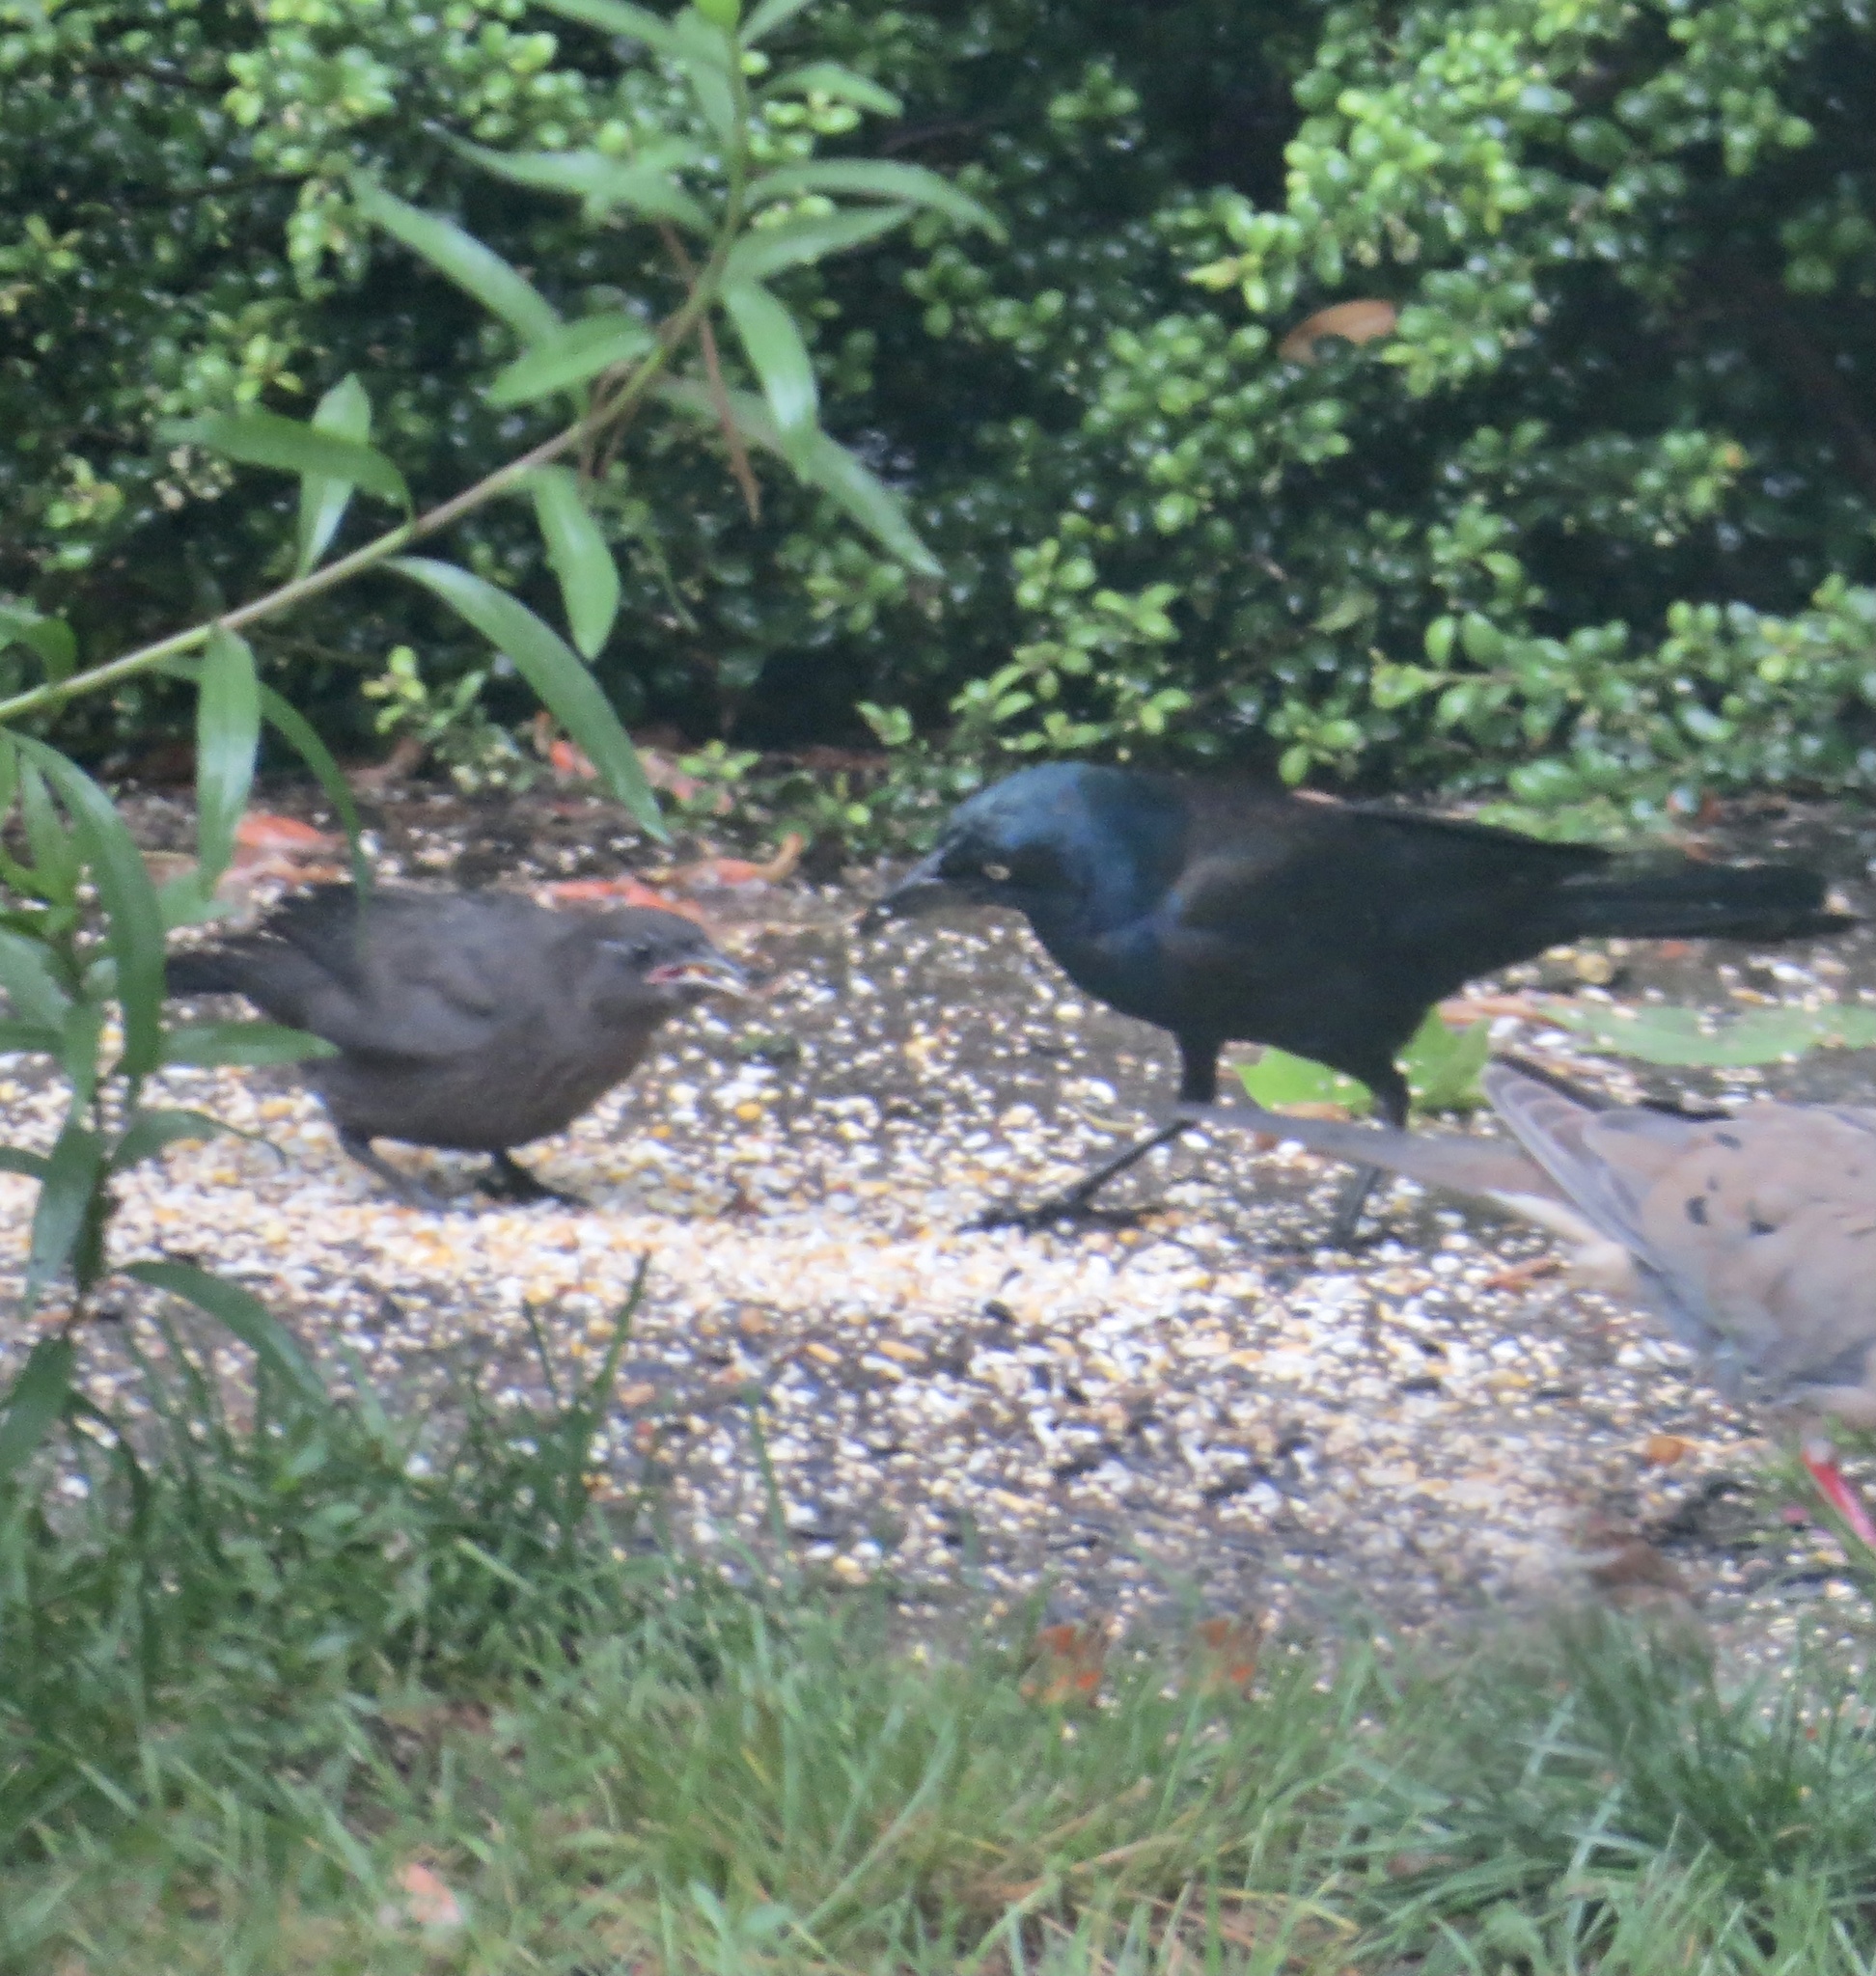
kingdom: Animalia
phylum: Chordata
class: Aves
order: Passeriformes
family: Icteridae
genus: Quiscalus
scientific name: Quiscalus quiscula
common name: Common grackle
